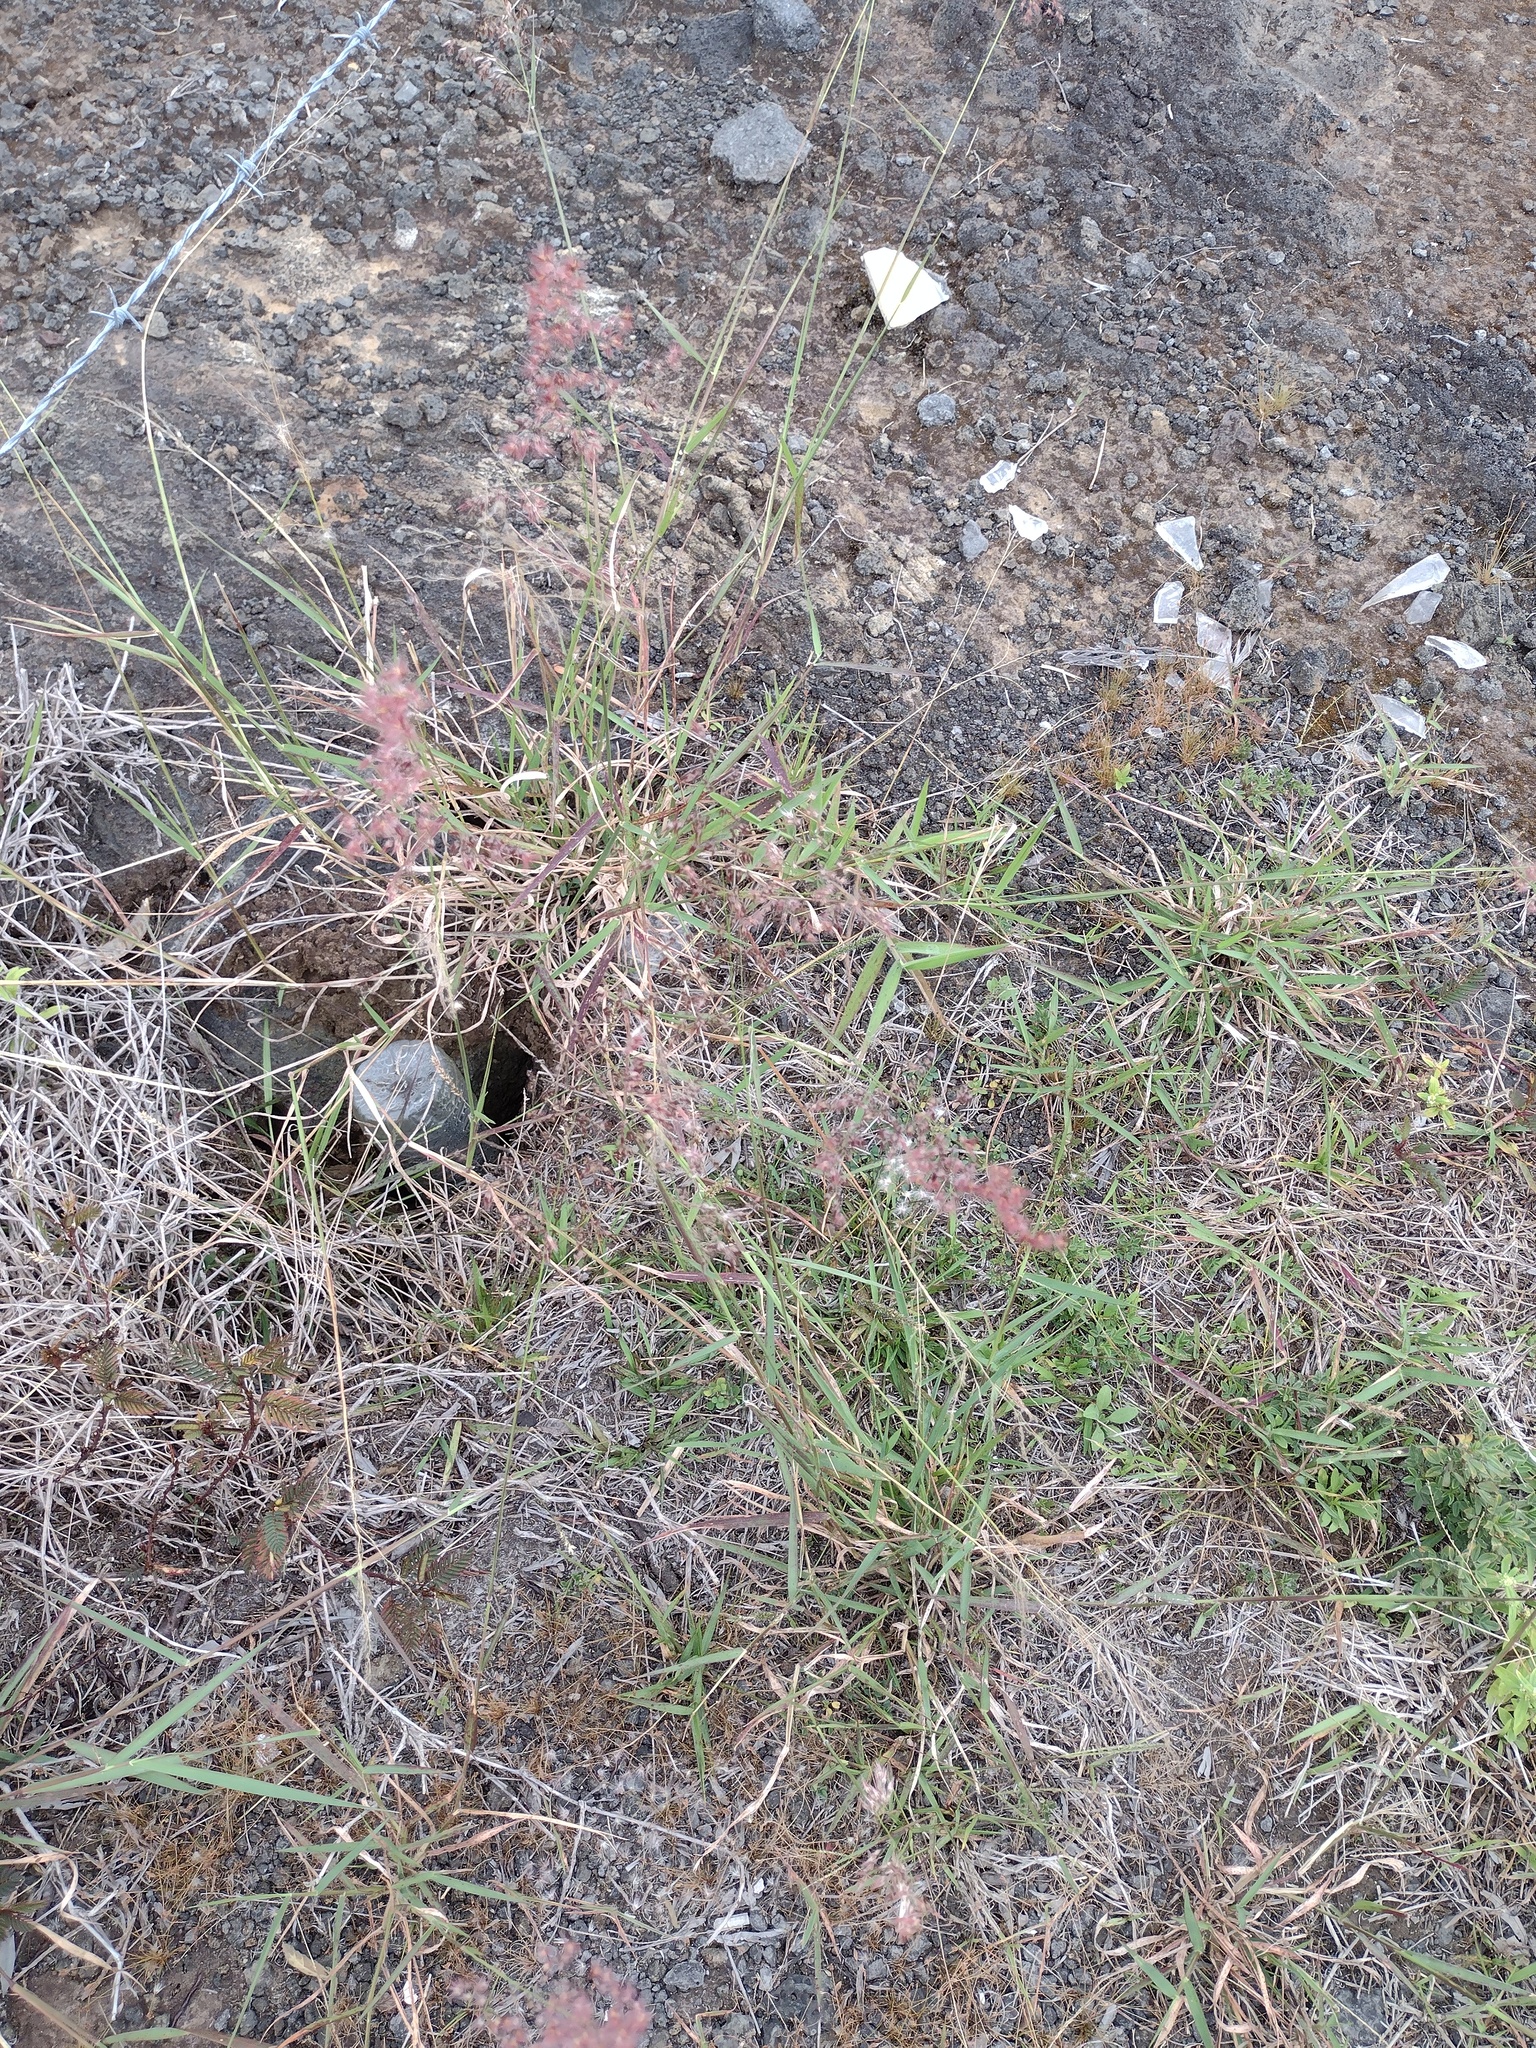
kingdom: Plantae
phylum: Tracheophyta
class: Liliopsida
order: Poales
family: Poaceae
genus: Melinis
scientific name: Melinis repens
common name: Rose natal grass
